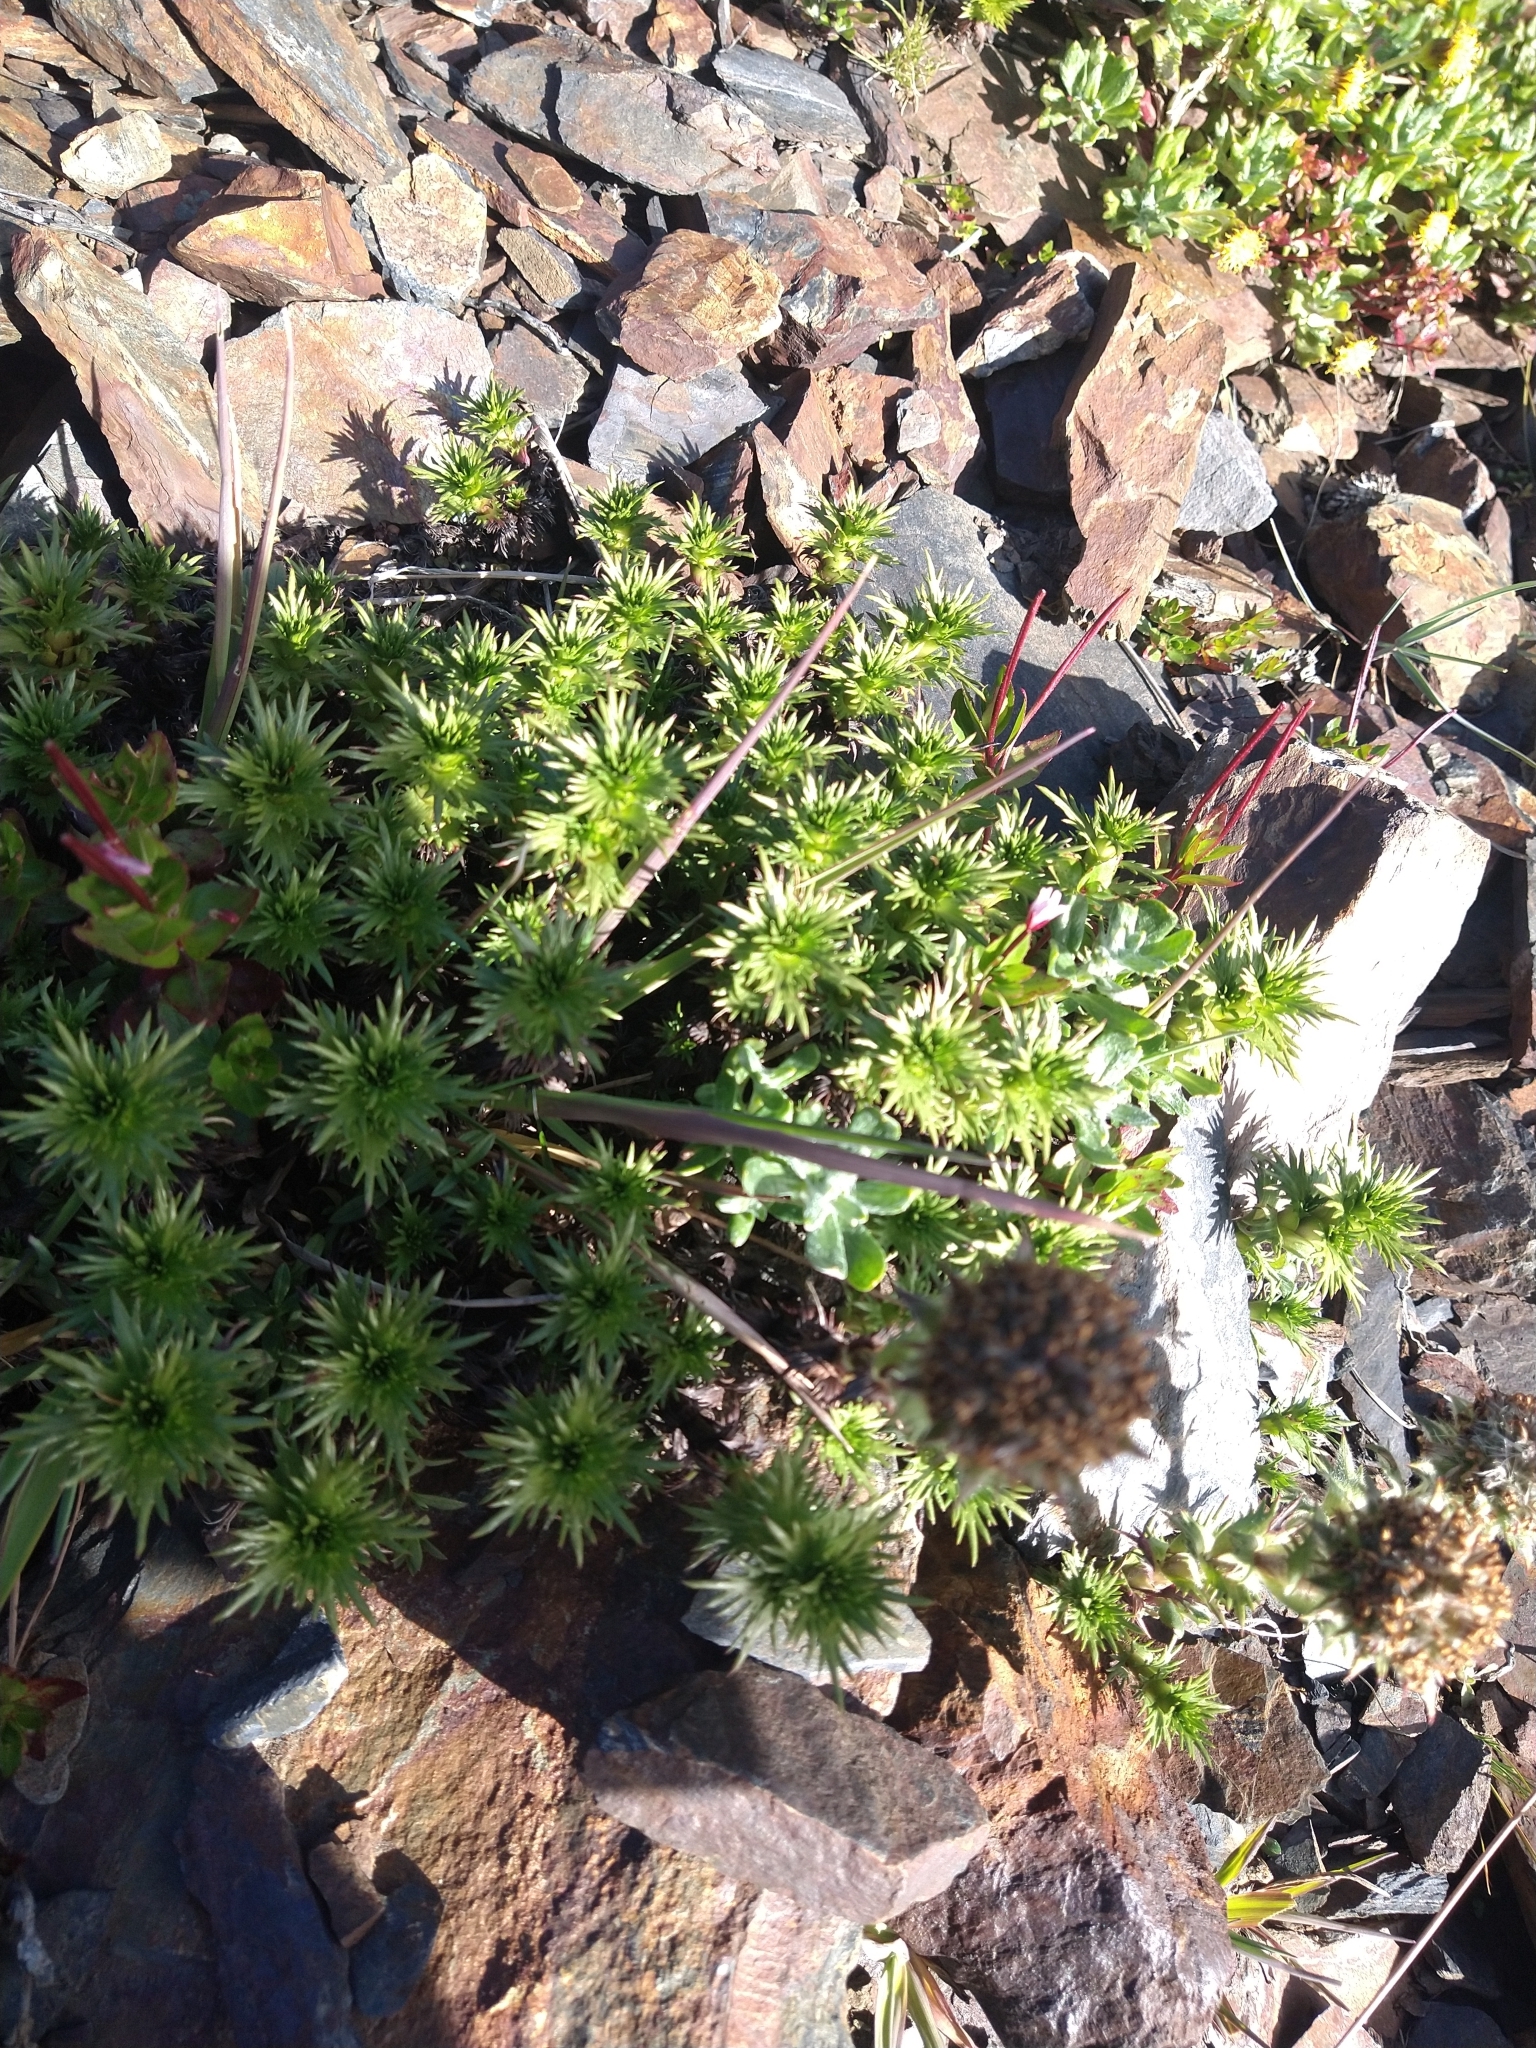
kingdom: Plantae
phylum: Tracheophyta
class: Magnoliopsida
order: Asterales
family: Asteraceae
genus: Nassauvia
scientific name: Nassauvia magellanica
